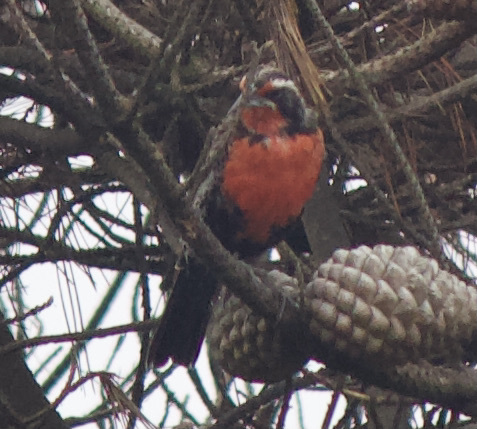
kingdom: Animalia
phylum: Chordata
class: Aves
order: Passeriformes
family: Icteridae
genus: Sturnella
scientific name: Sturnella loyca
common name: Long-tailed meadowlark
